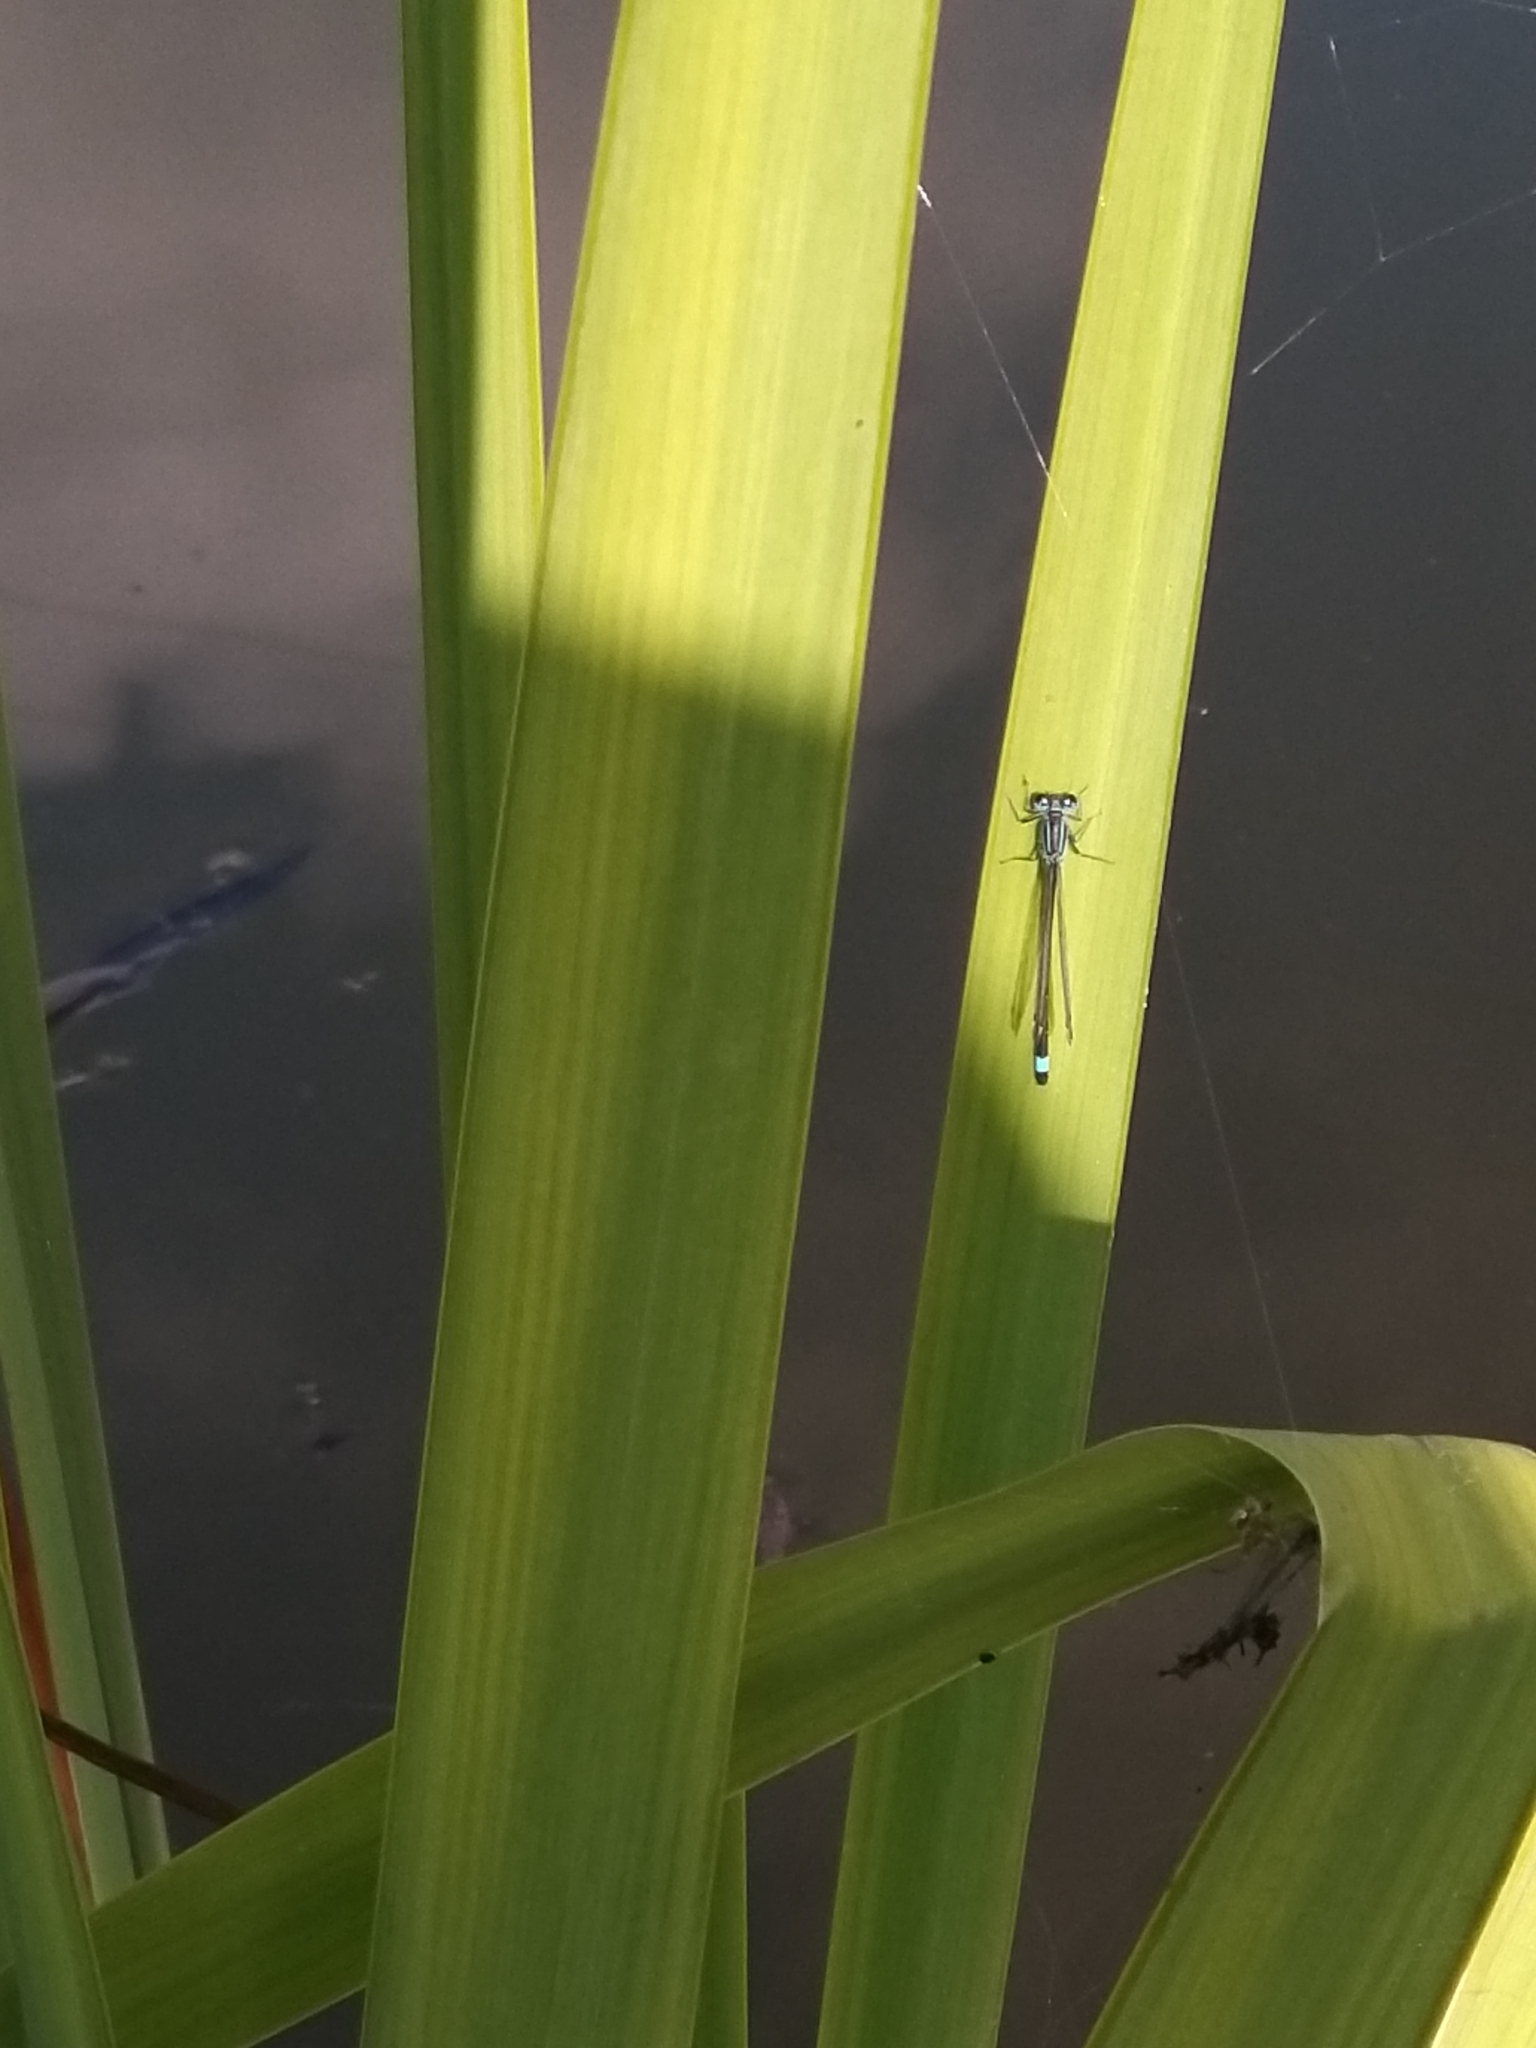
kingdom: Animalia
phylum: Arthropoda
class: Insecta
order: Odonata
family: Coenagrionidae
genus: Ischnura
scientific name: Ischnura elegans
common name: Blue-tailed damselfly
